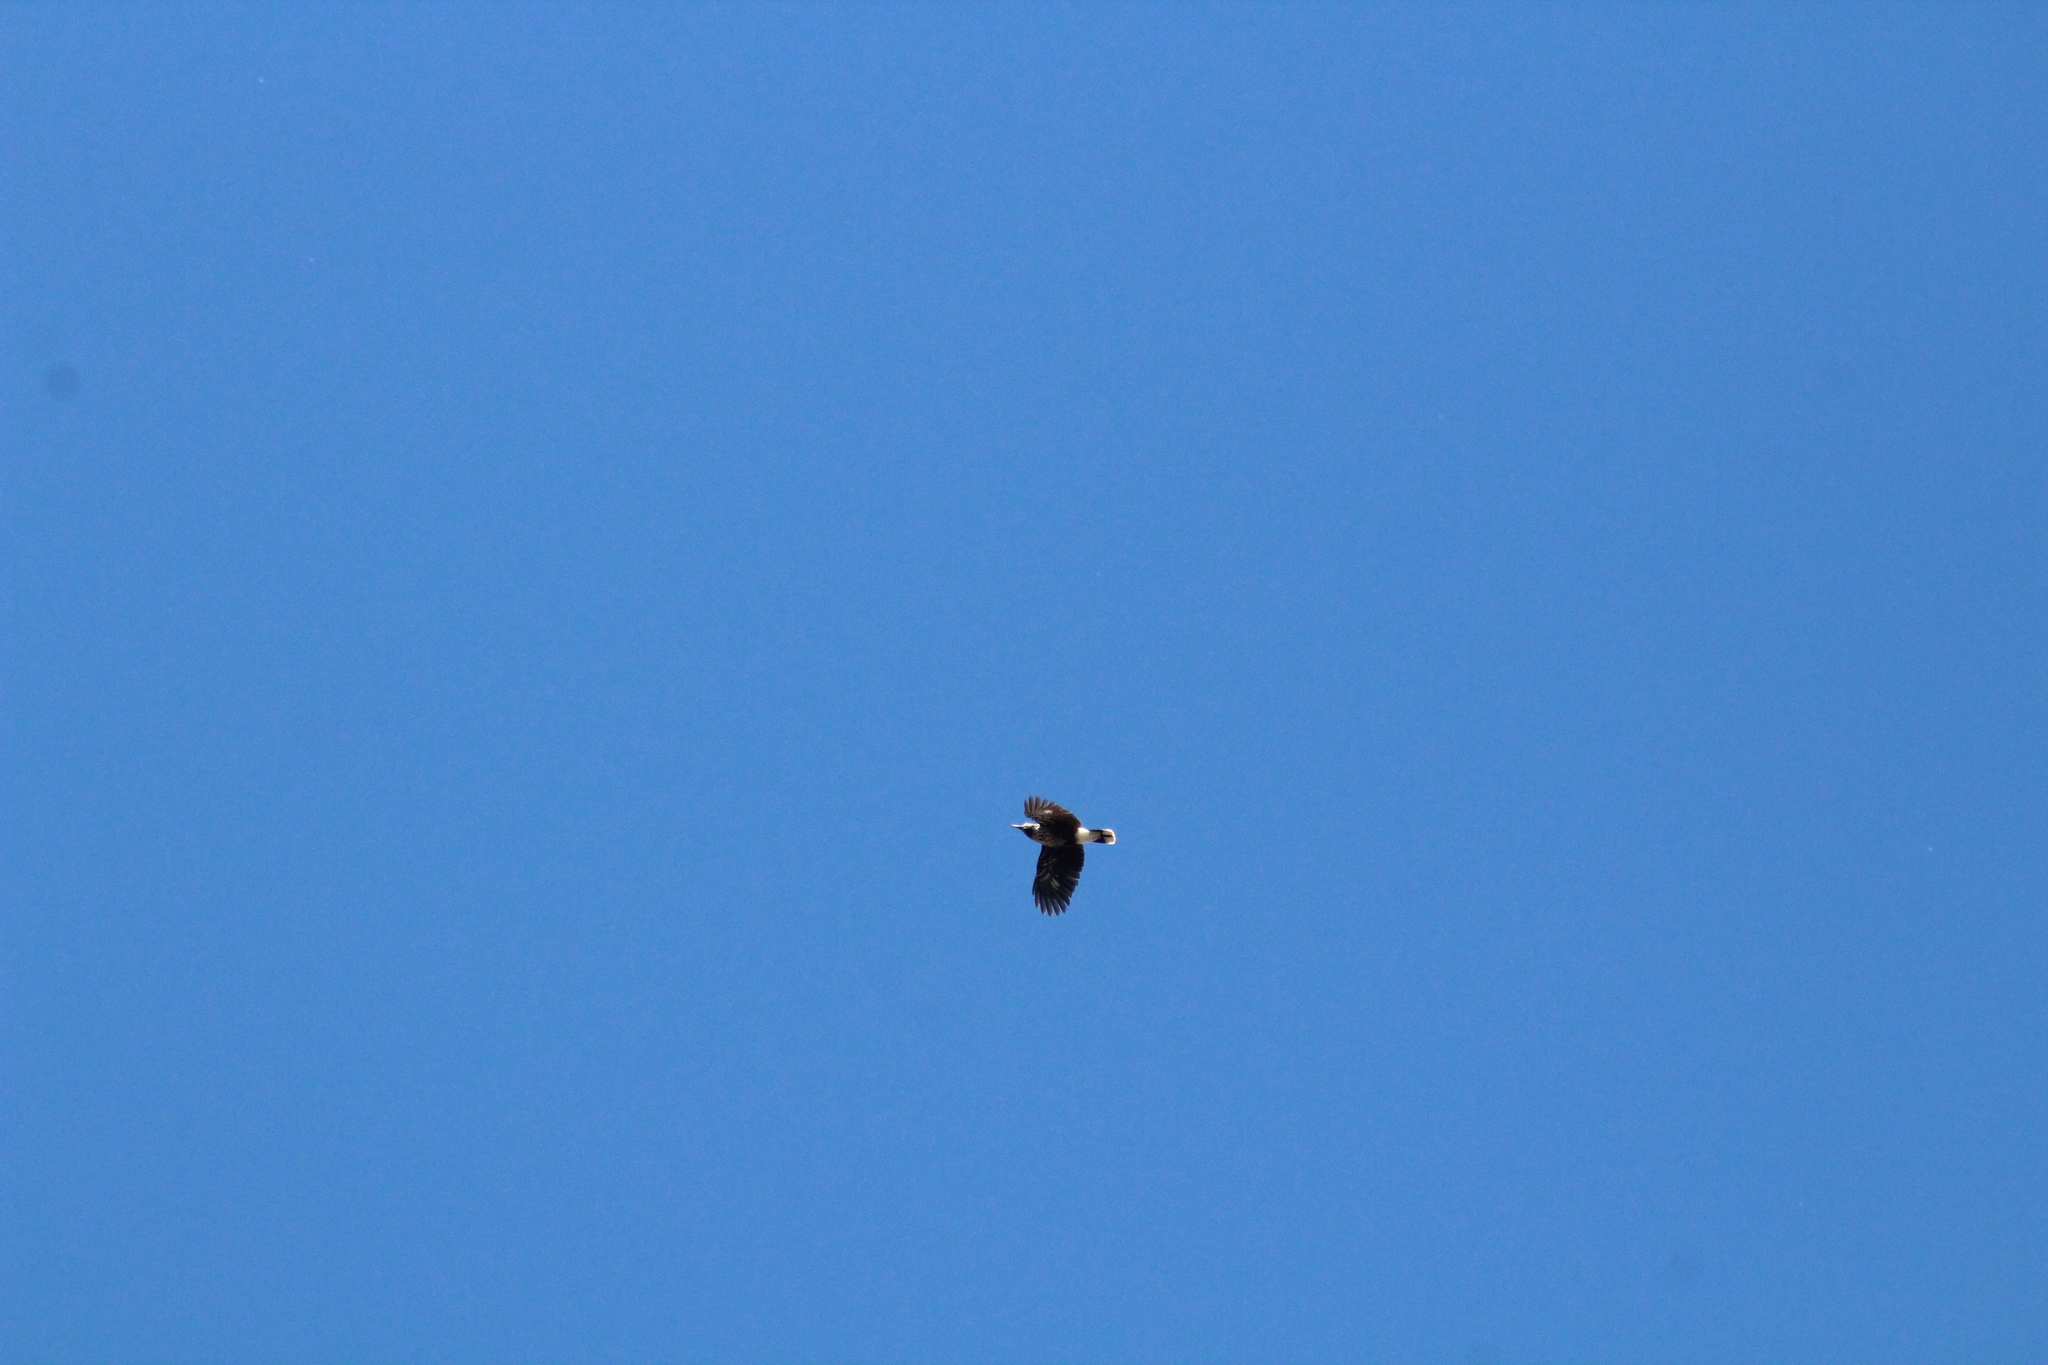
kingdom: Animalia
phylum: Chordata
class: Aves
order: Passeriformes
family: Corvidae
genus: Nucifraga
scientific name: Nucifraga caryocatactes
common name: Spotted nutcracker
